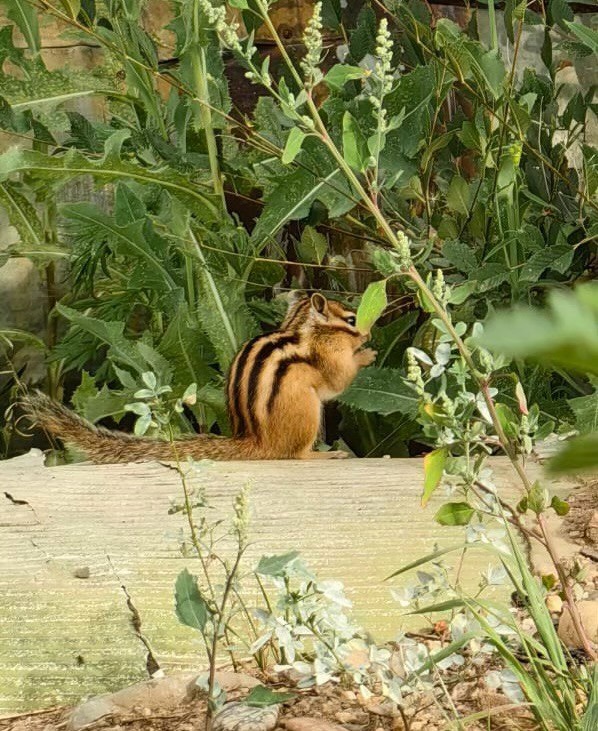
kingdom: Animalia
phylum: Chordata
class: Mammalia
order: Rodentia
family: Sciuridae
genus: Tamias
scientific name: Tamias sibiricus
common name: Siberian chipmunk
